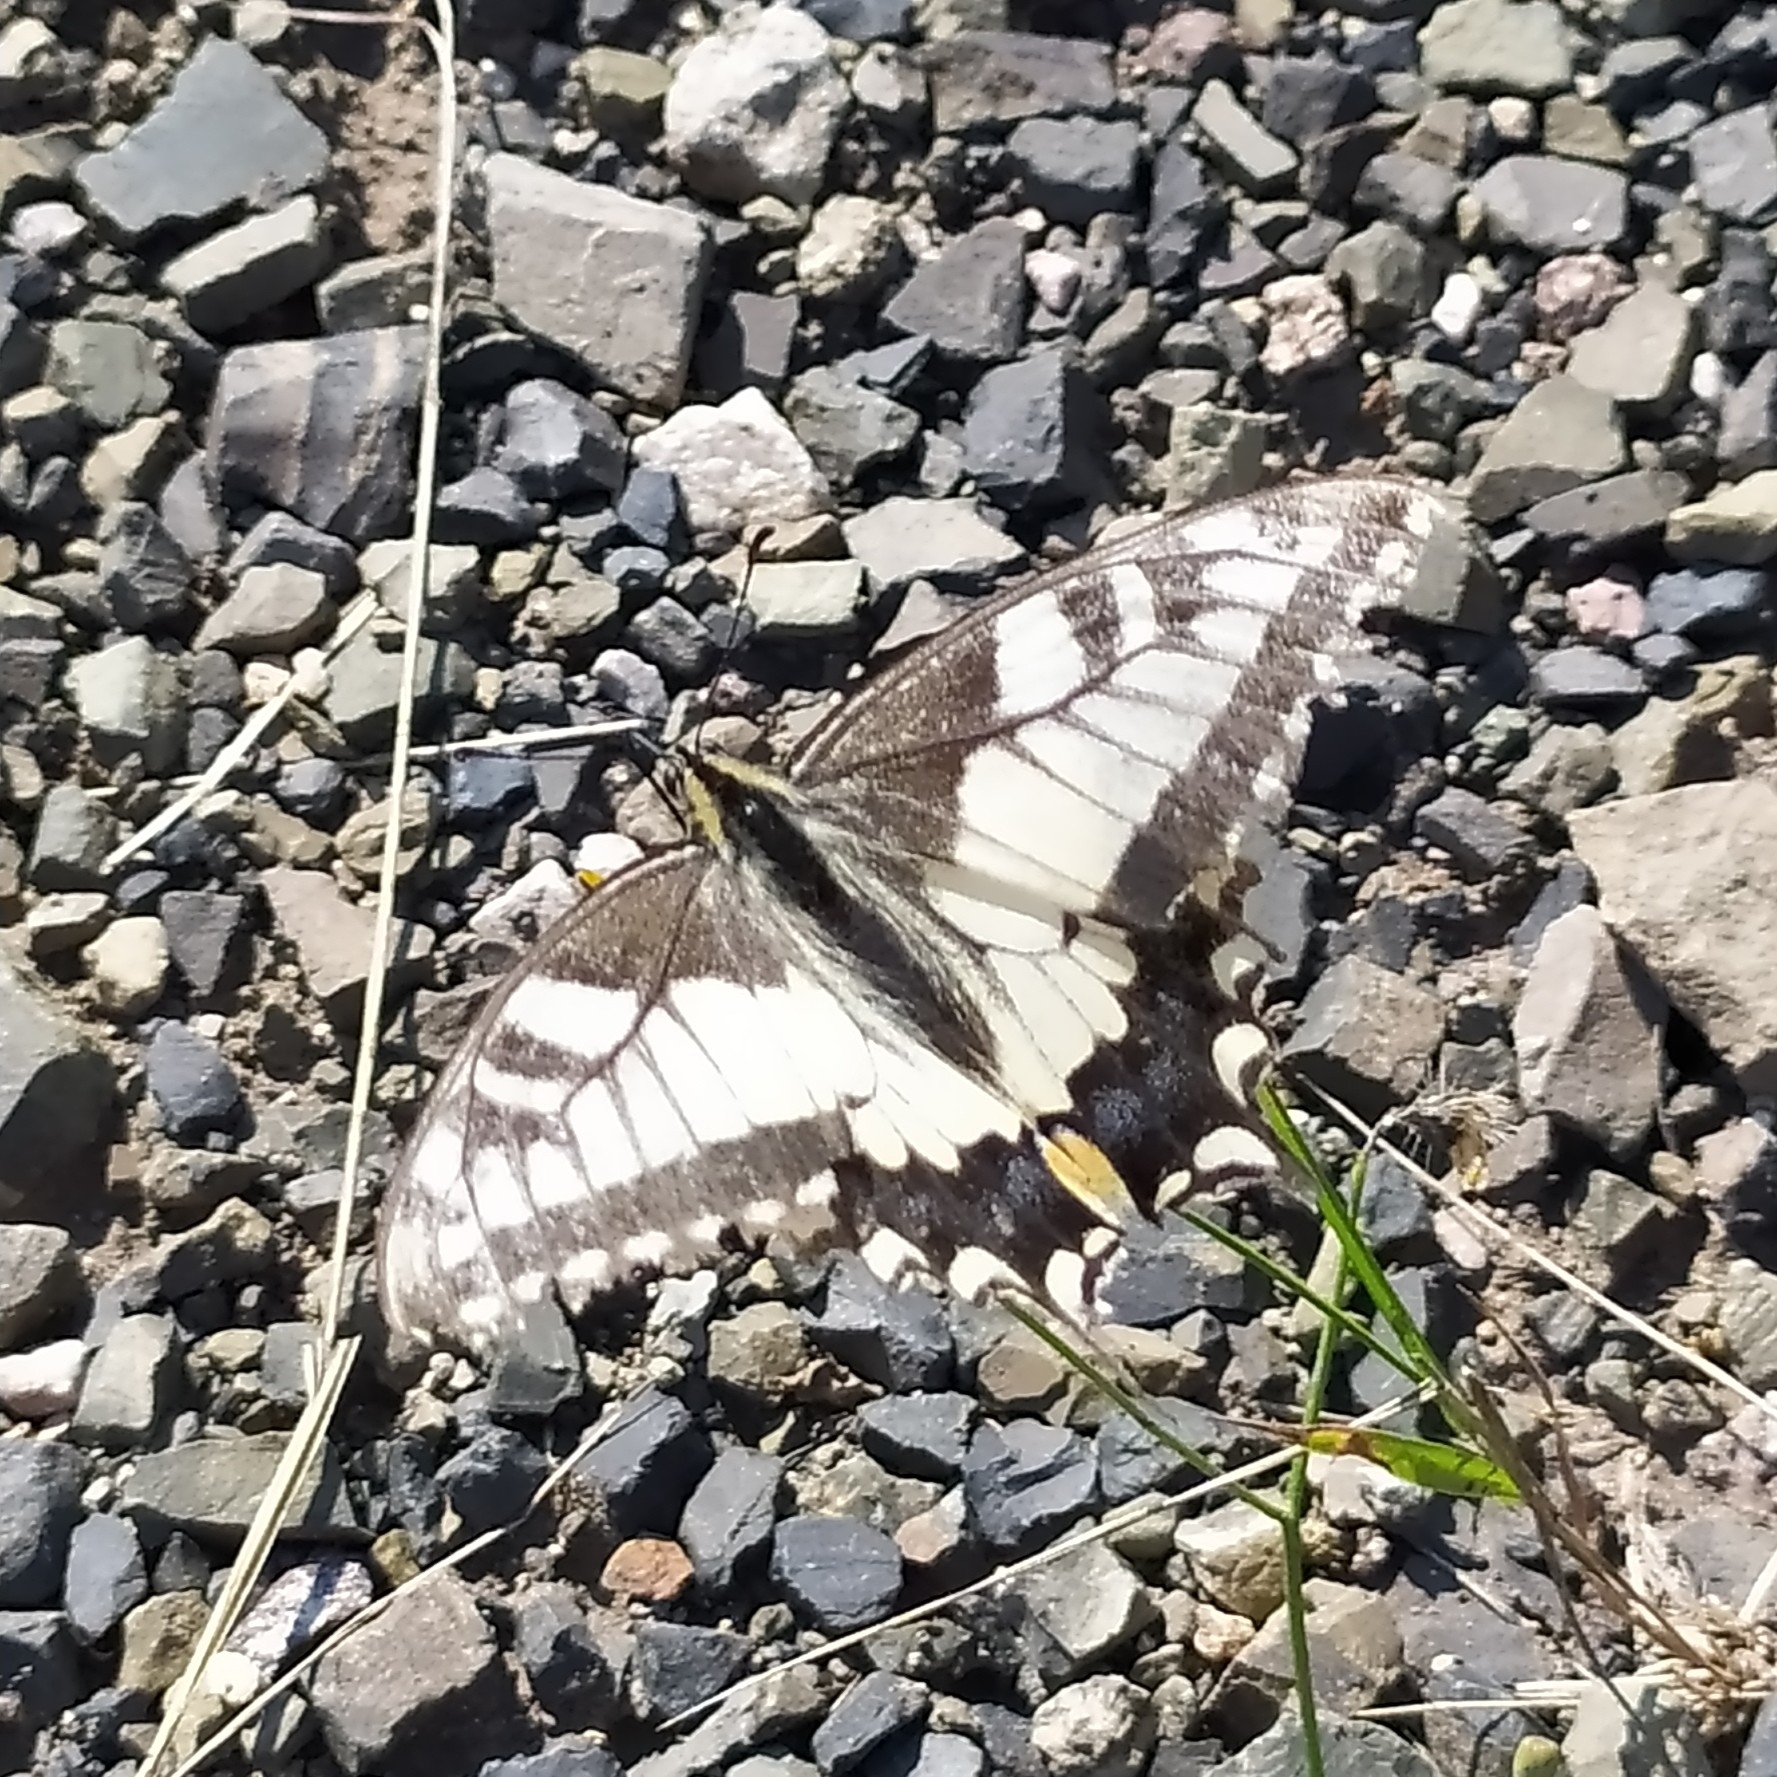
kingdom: Animalia
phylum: Arthropoda
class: Insecta
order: Lepidoptera
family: Papilionidae
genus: Papilio
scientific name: Papilio machaon
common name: Swallowtail
